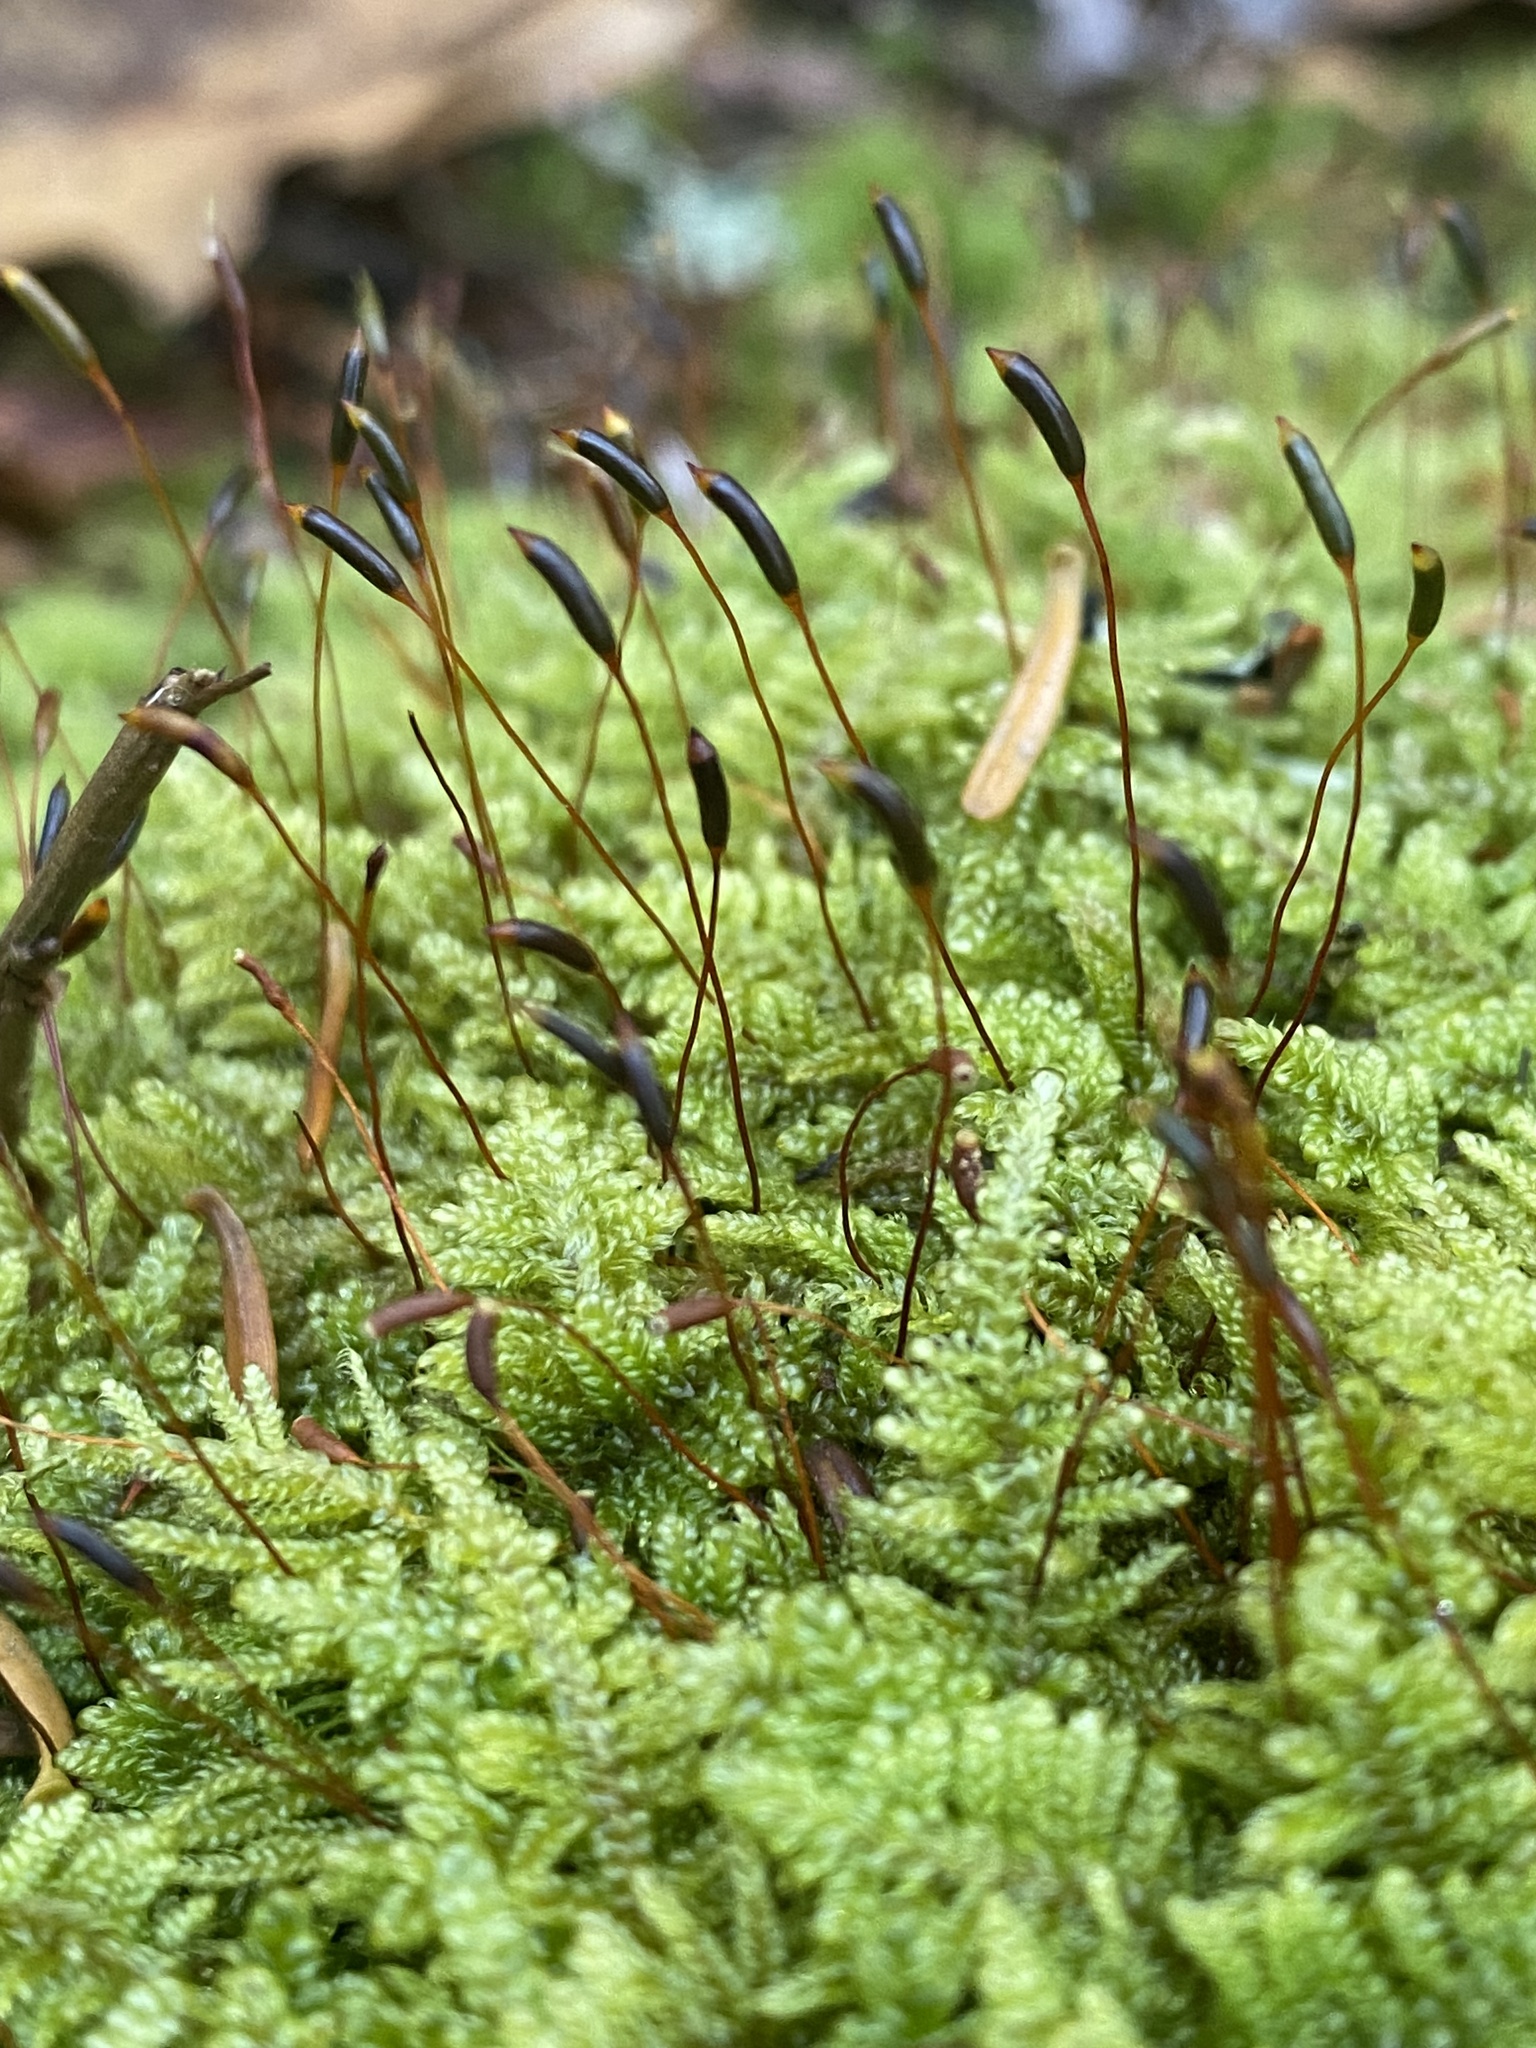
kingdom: Plantae
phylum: Bryophyta
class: Bryopsida
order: Hypnales
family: Callicladiaceae
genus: Callicladium
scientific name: Callicladium imponens
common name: Brocade moss
